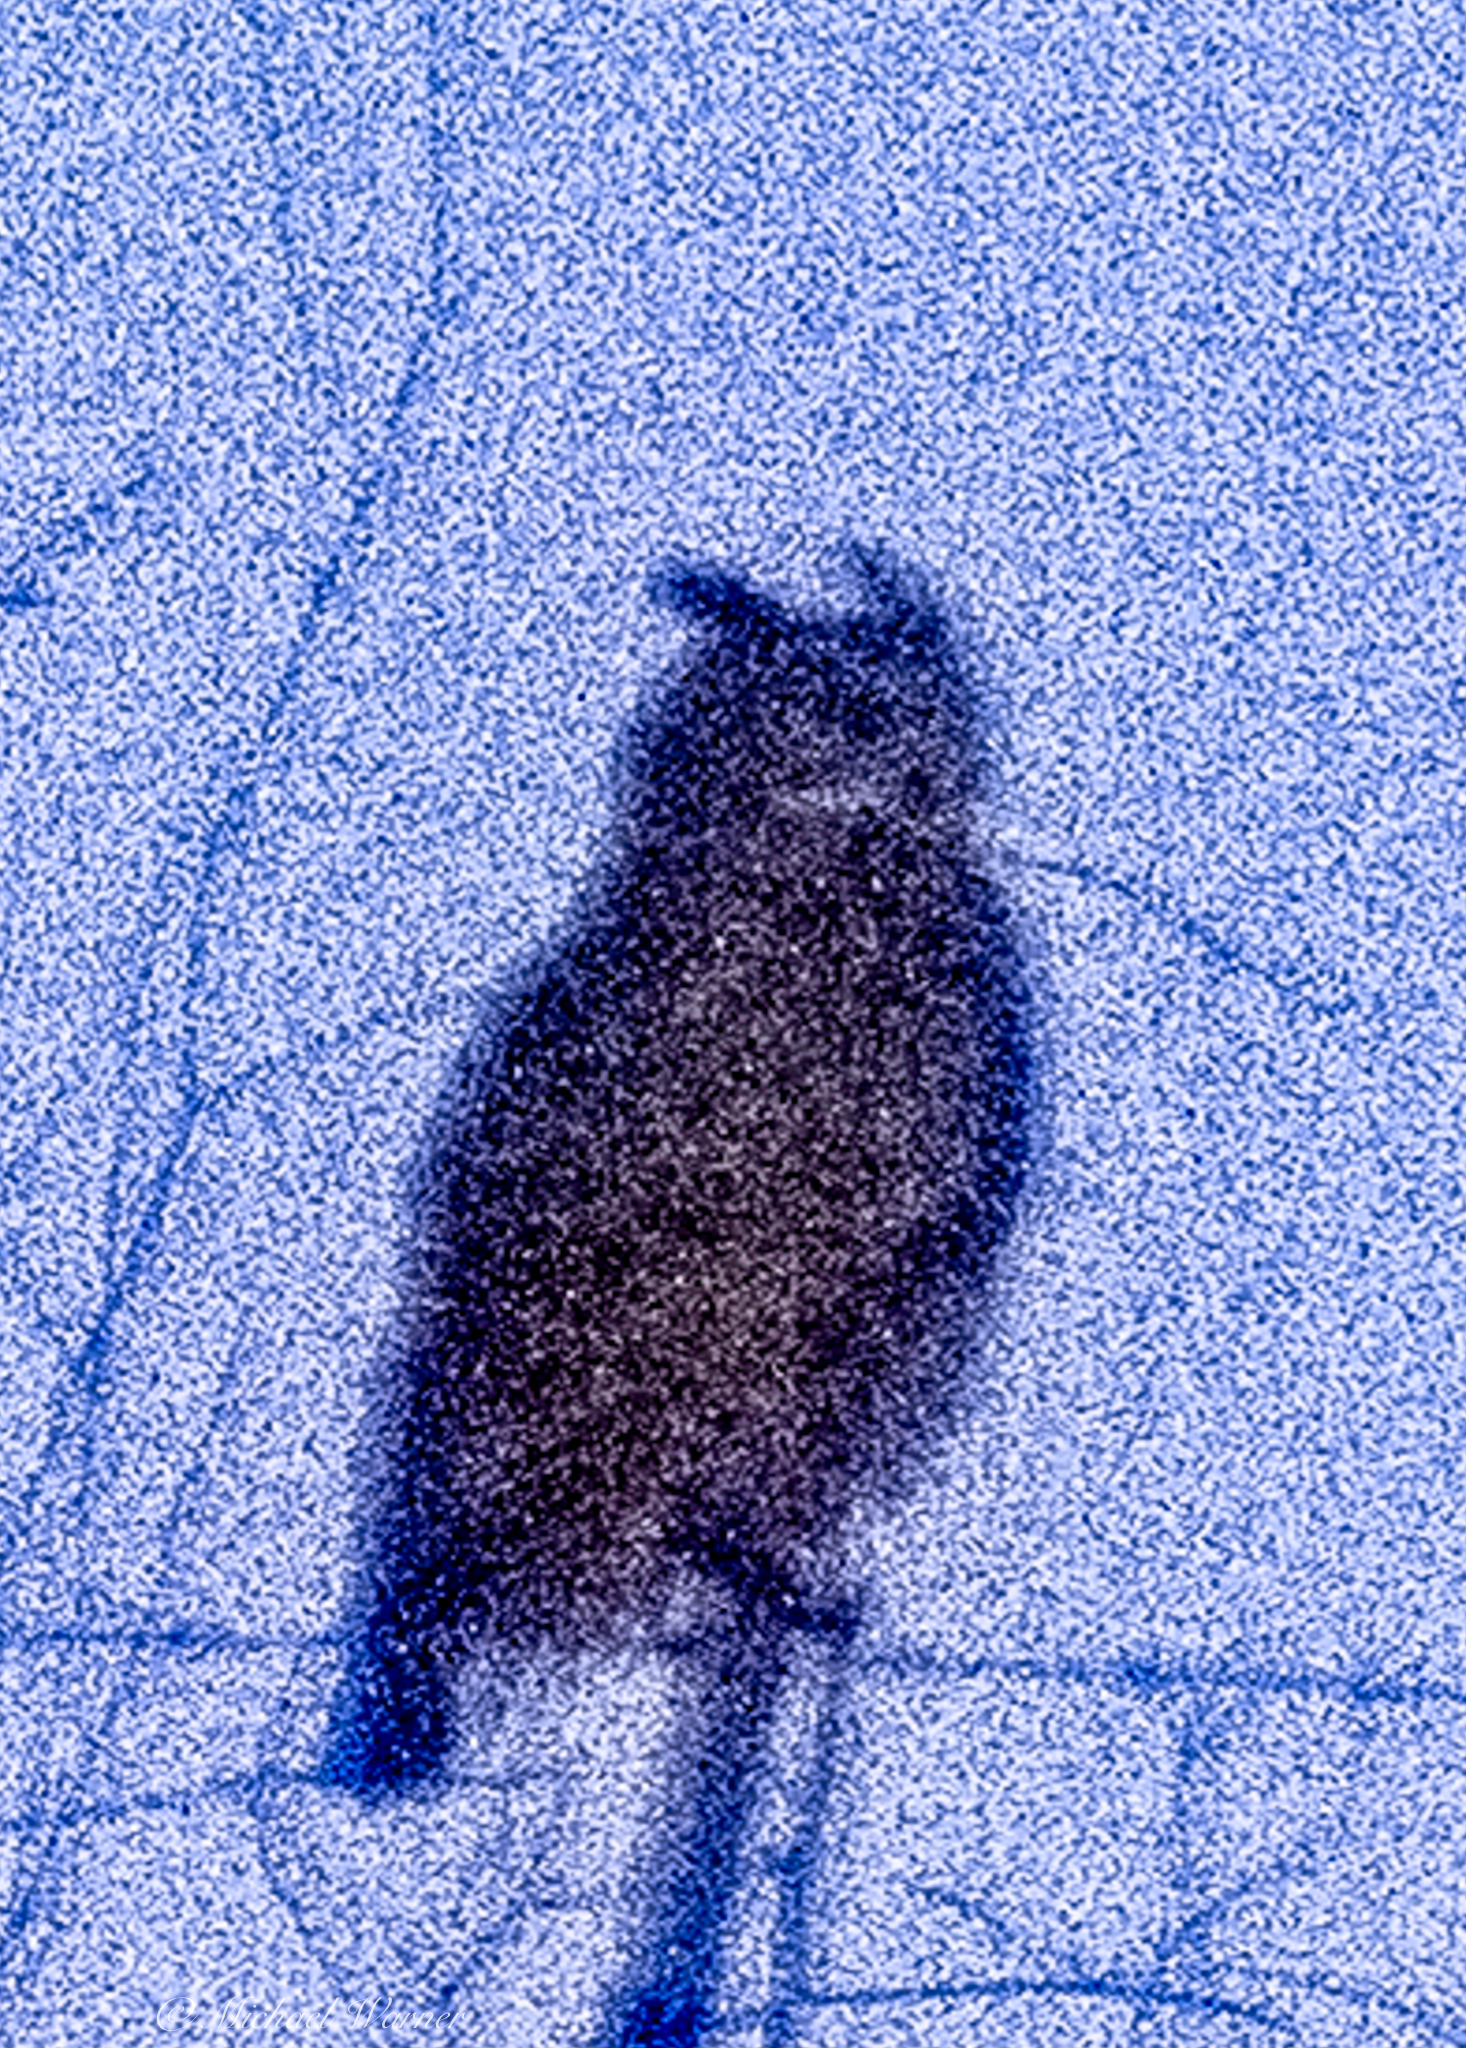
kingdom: Animalia
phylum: Chordata
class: Aves
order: Strigiformes
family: Strigidae
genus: Bubo
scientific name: Bubo virginianus
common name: Great horned owl
